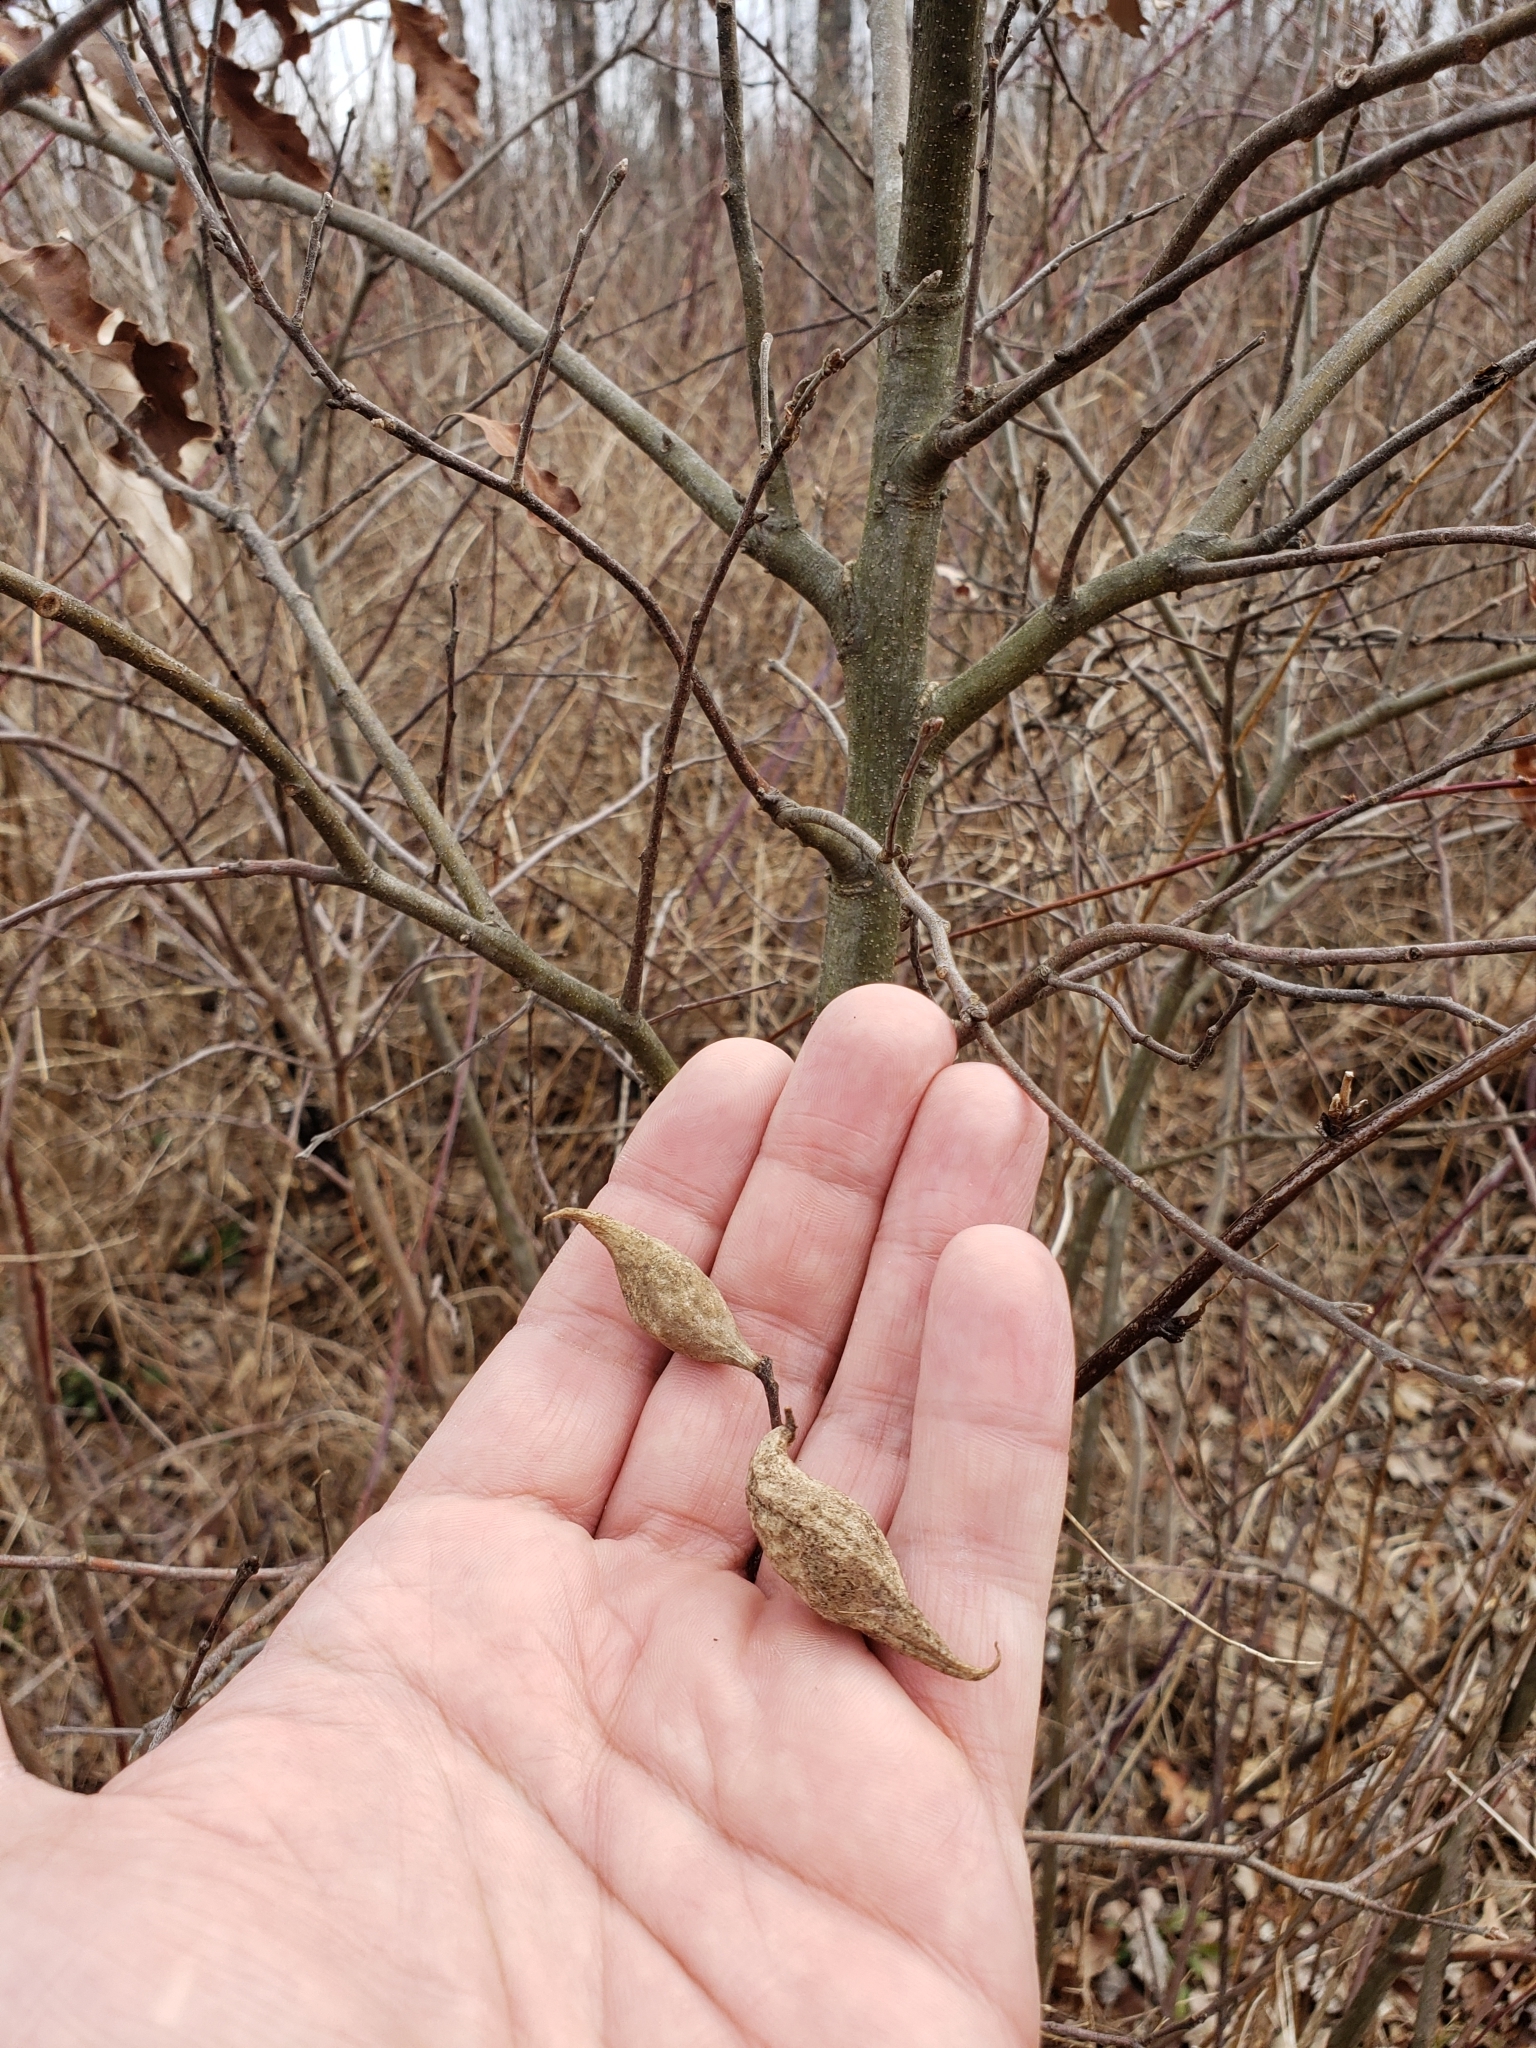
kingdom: Animalia
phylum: Arthropoda
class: Insecta
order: Hymenoptera
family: Cynipidae
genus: Amphibolips
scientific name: Amphibolips
